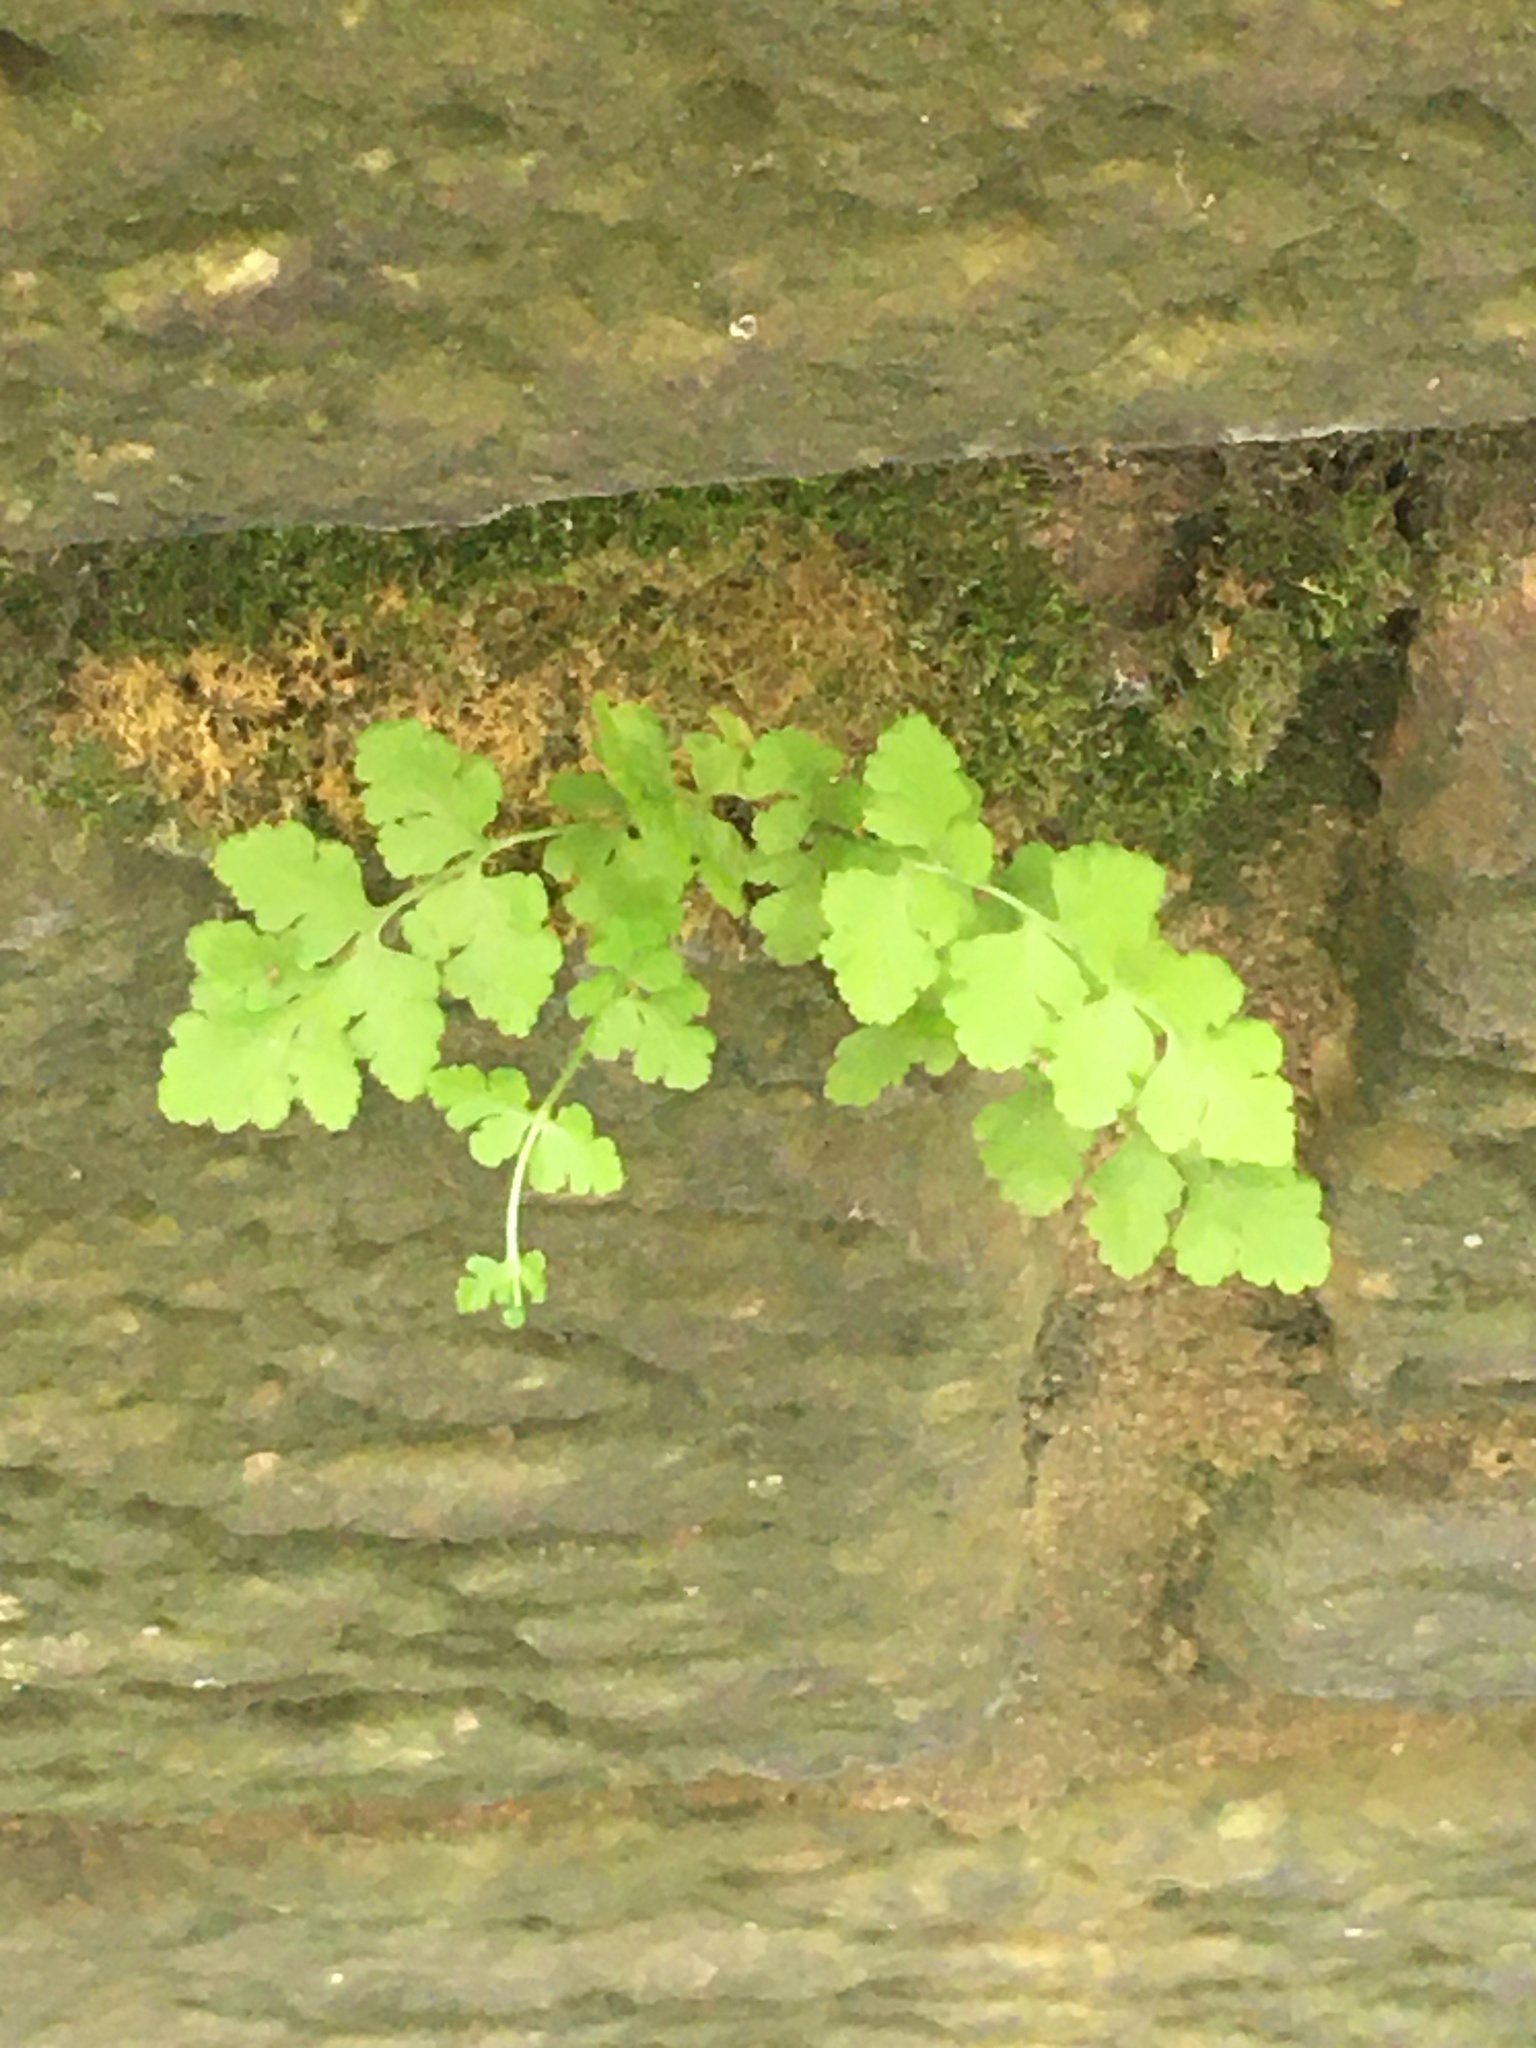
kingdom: Plantae
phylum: Tracheophyta
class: Polypodiopsida
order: Polypodiales
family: Woodsiaceae
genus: Physematium
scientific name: Physematium obtusum
